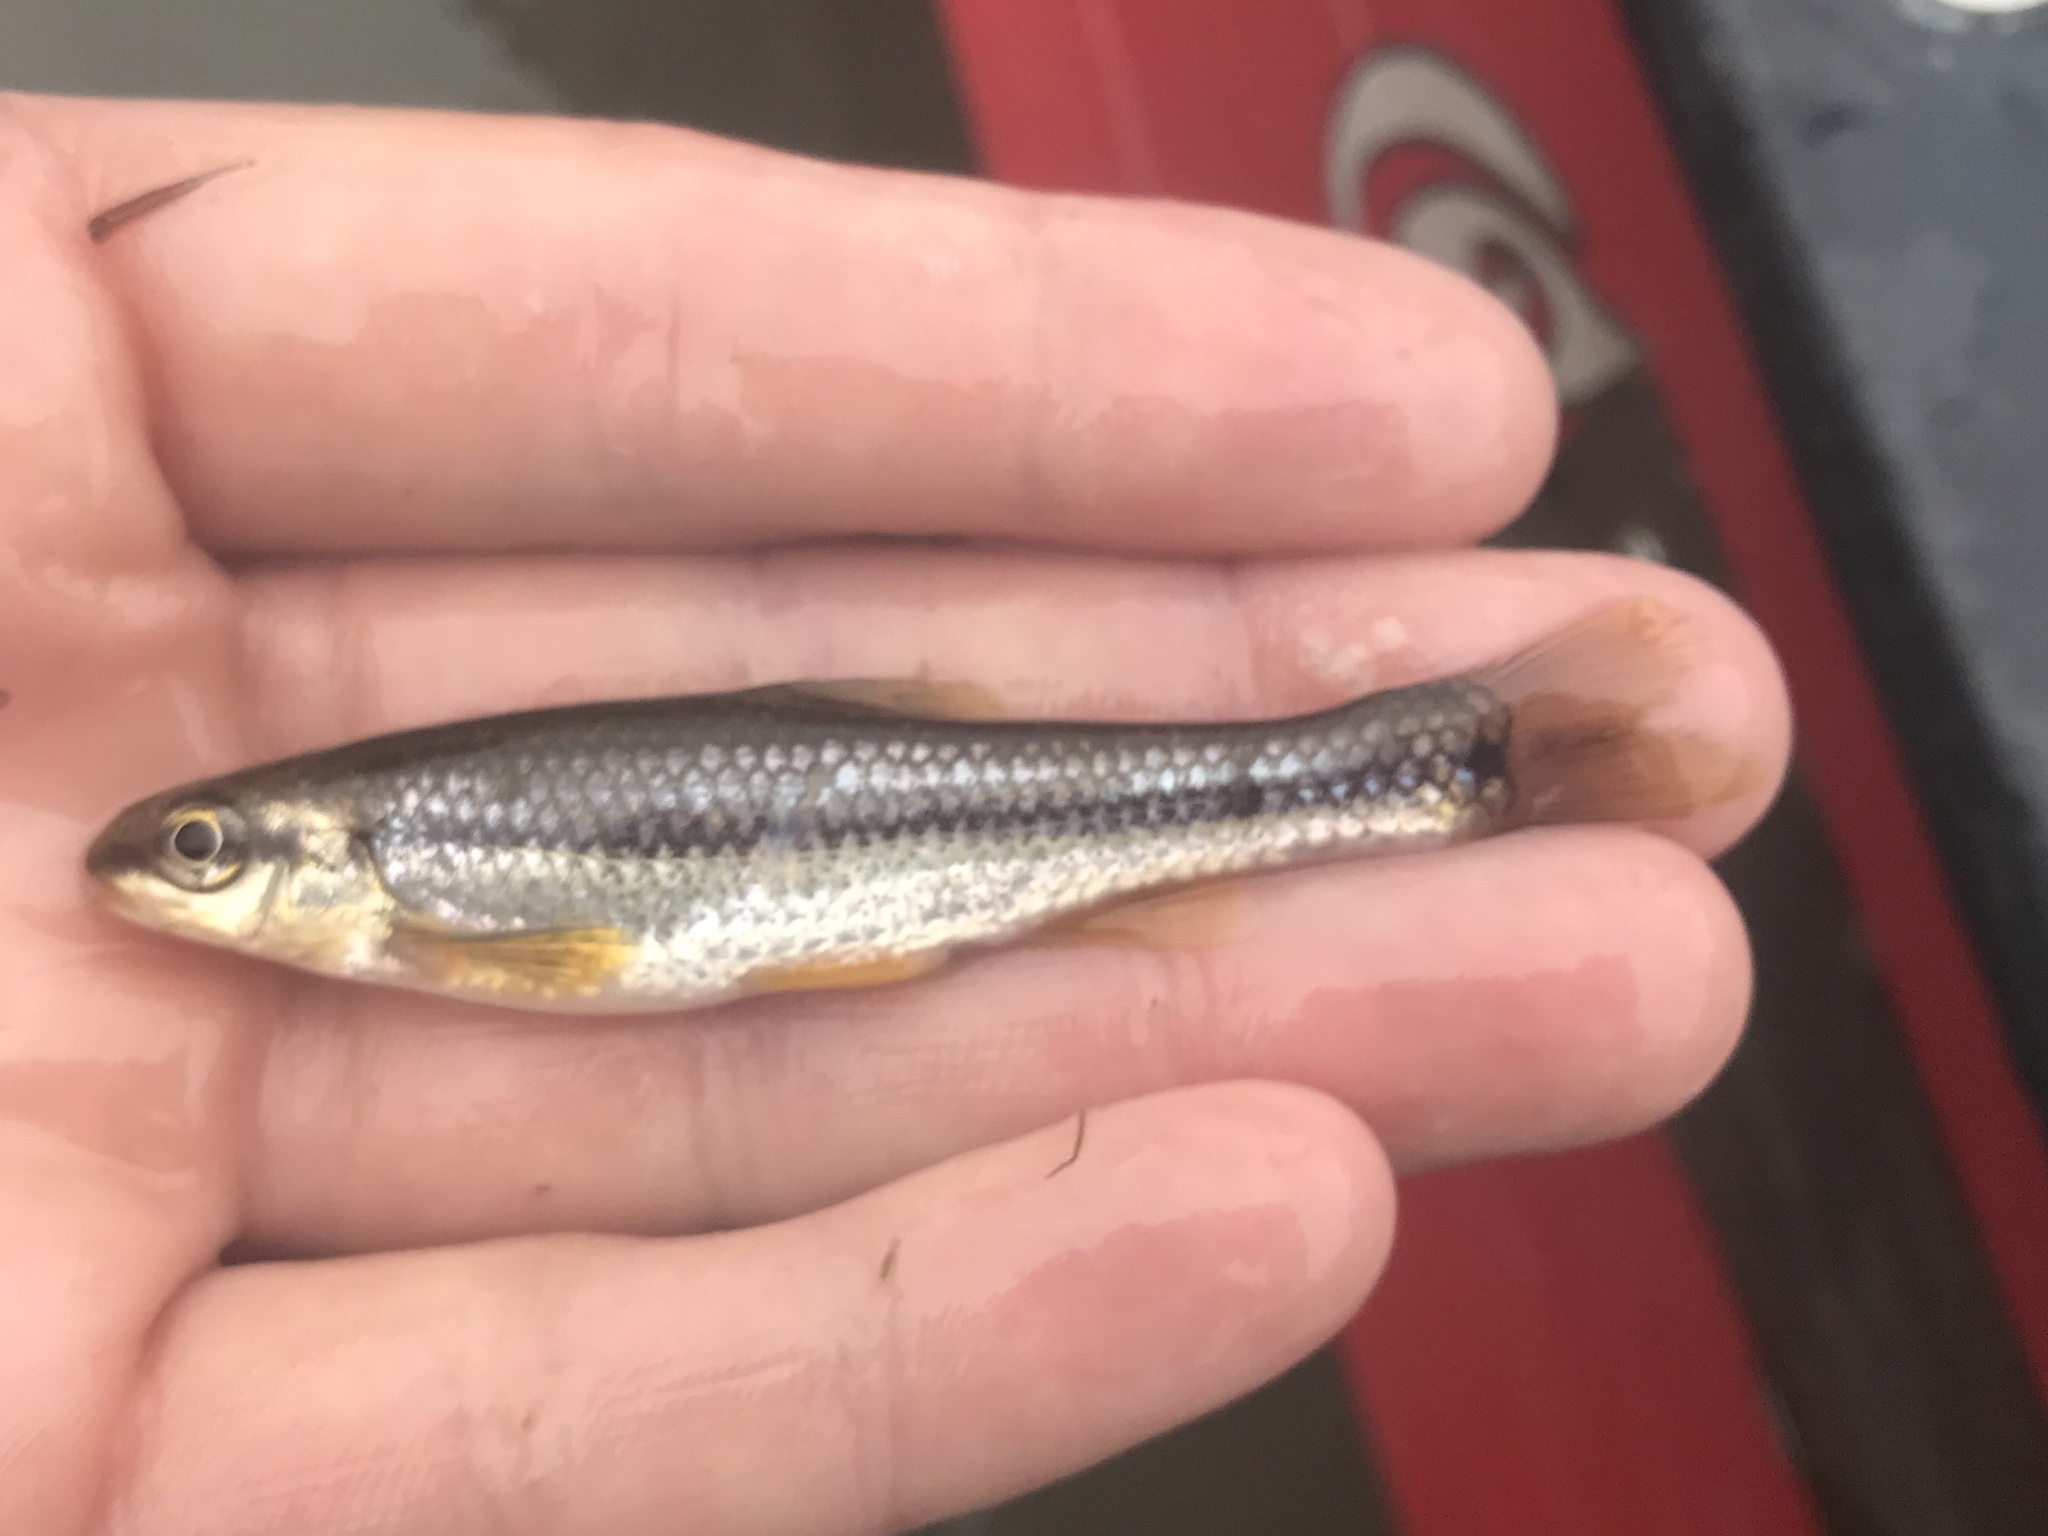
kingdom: Animalia
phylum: Chordata
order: Cypriniformes
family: Cyprinidae
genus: Dionda
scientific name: Dionda flavipinnis
